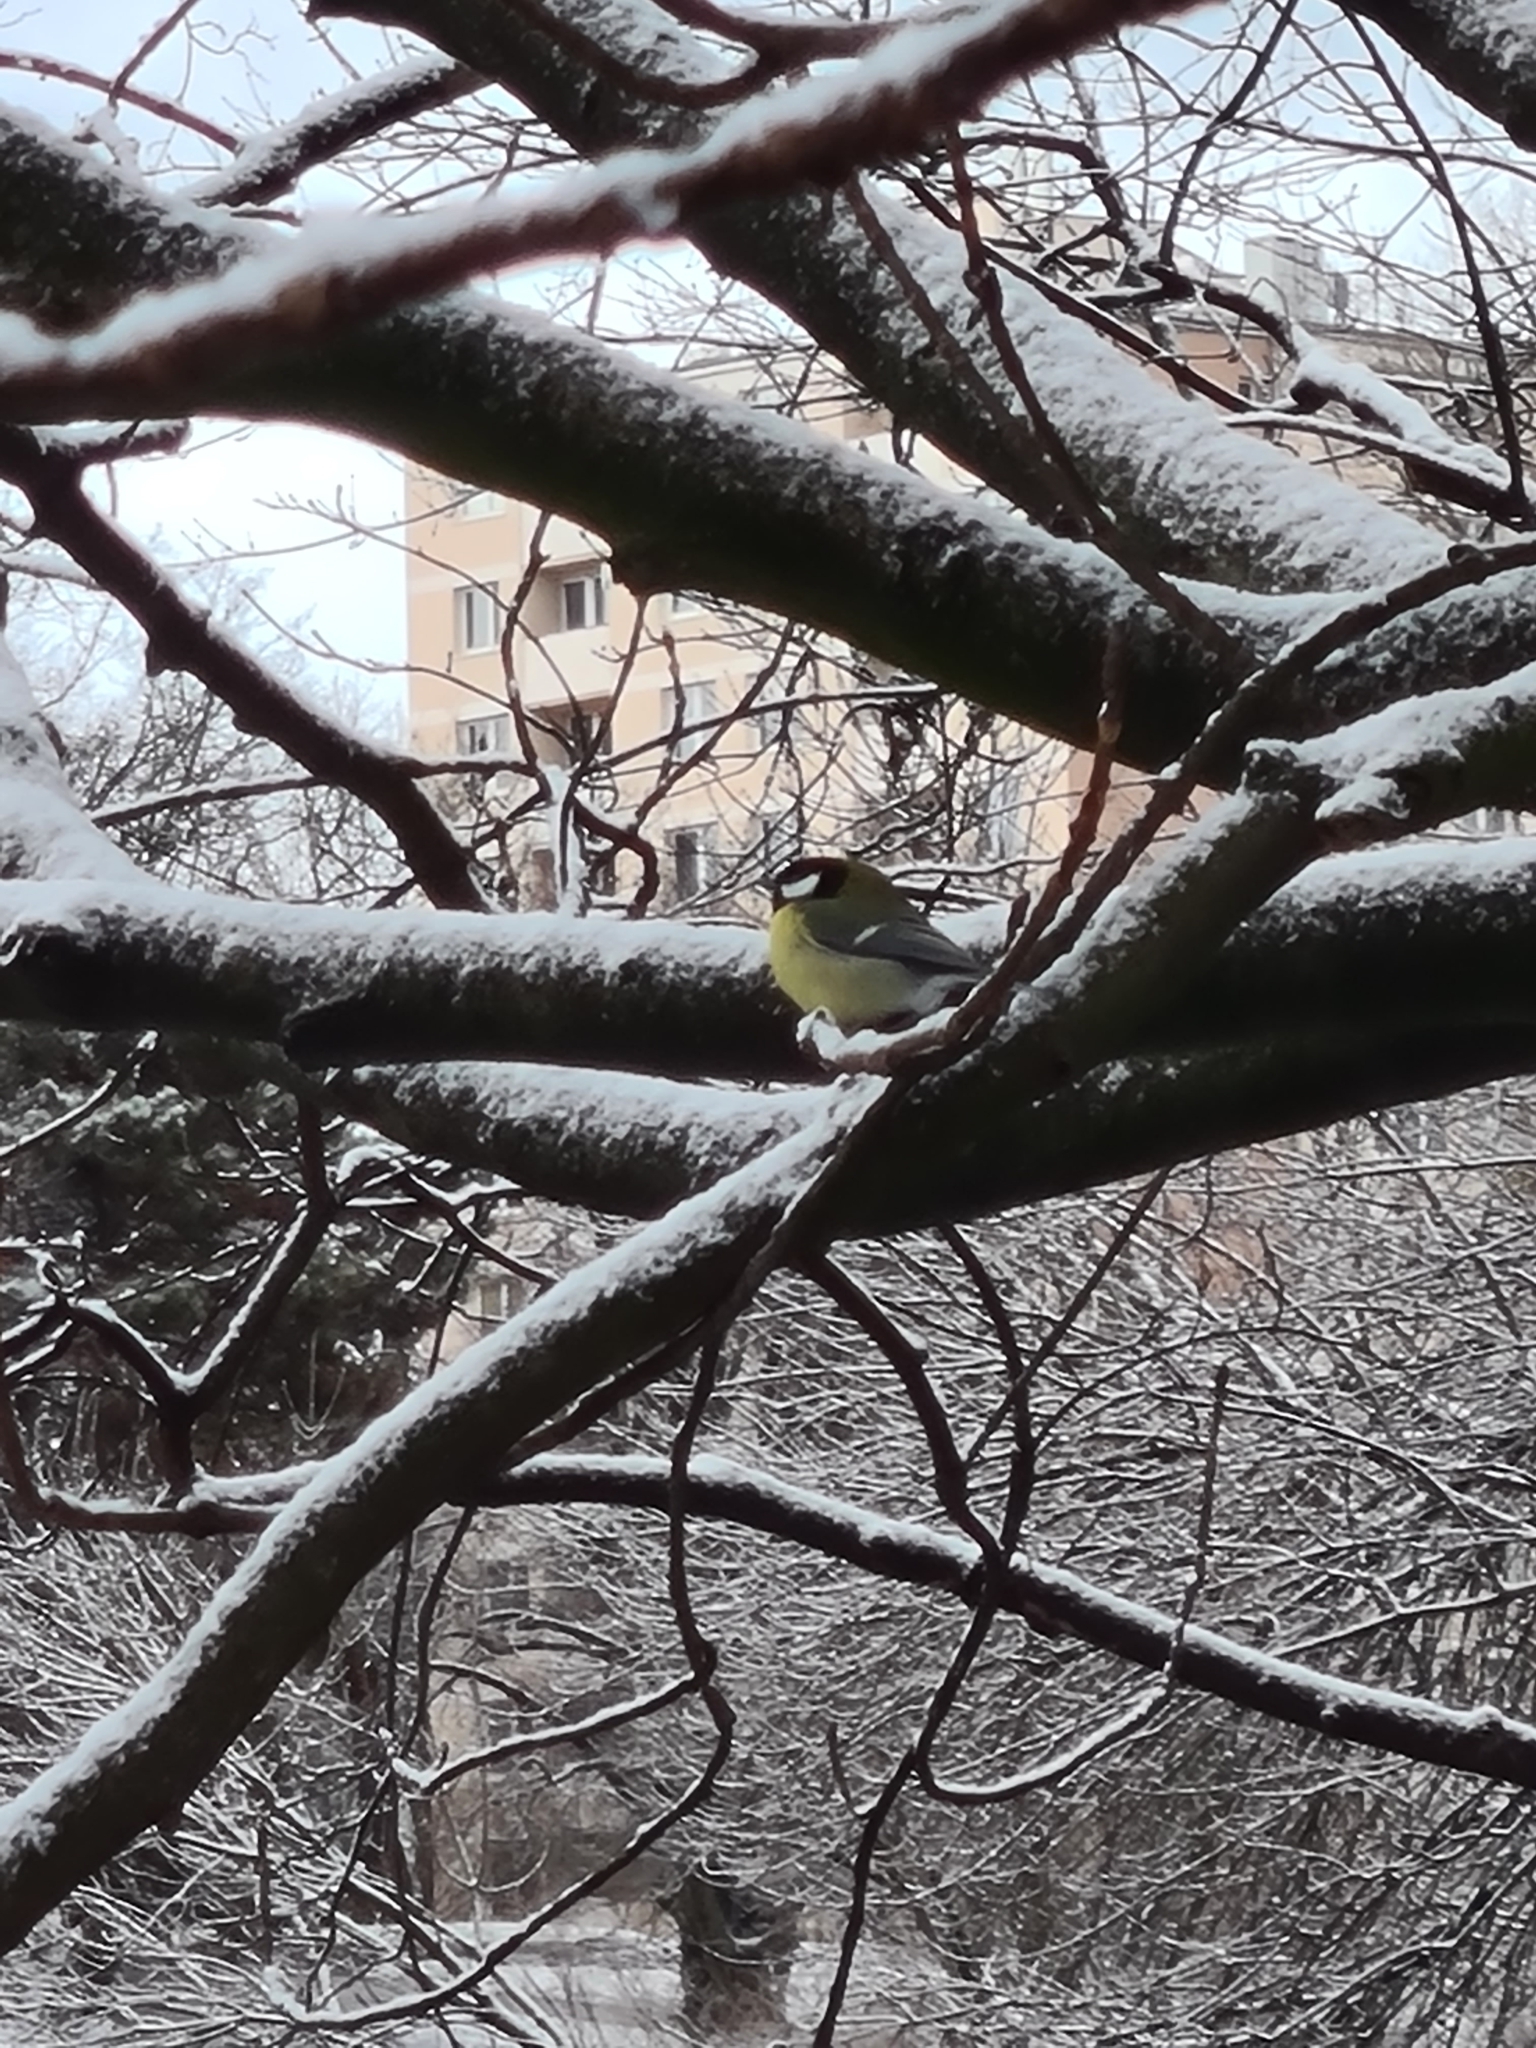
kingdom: Animalia
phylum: Chordata
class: Aves
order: Passeriformes
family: Paridae
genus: Parus
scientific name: Parus major
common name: Great tit
